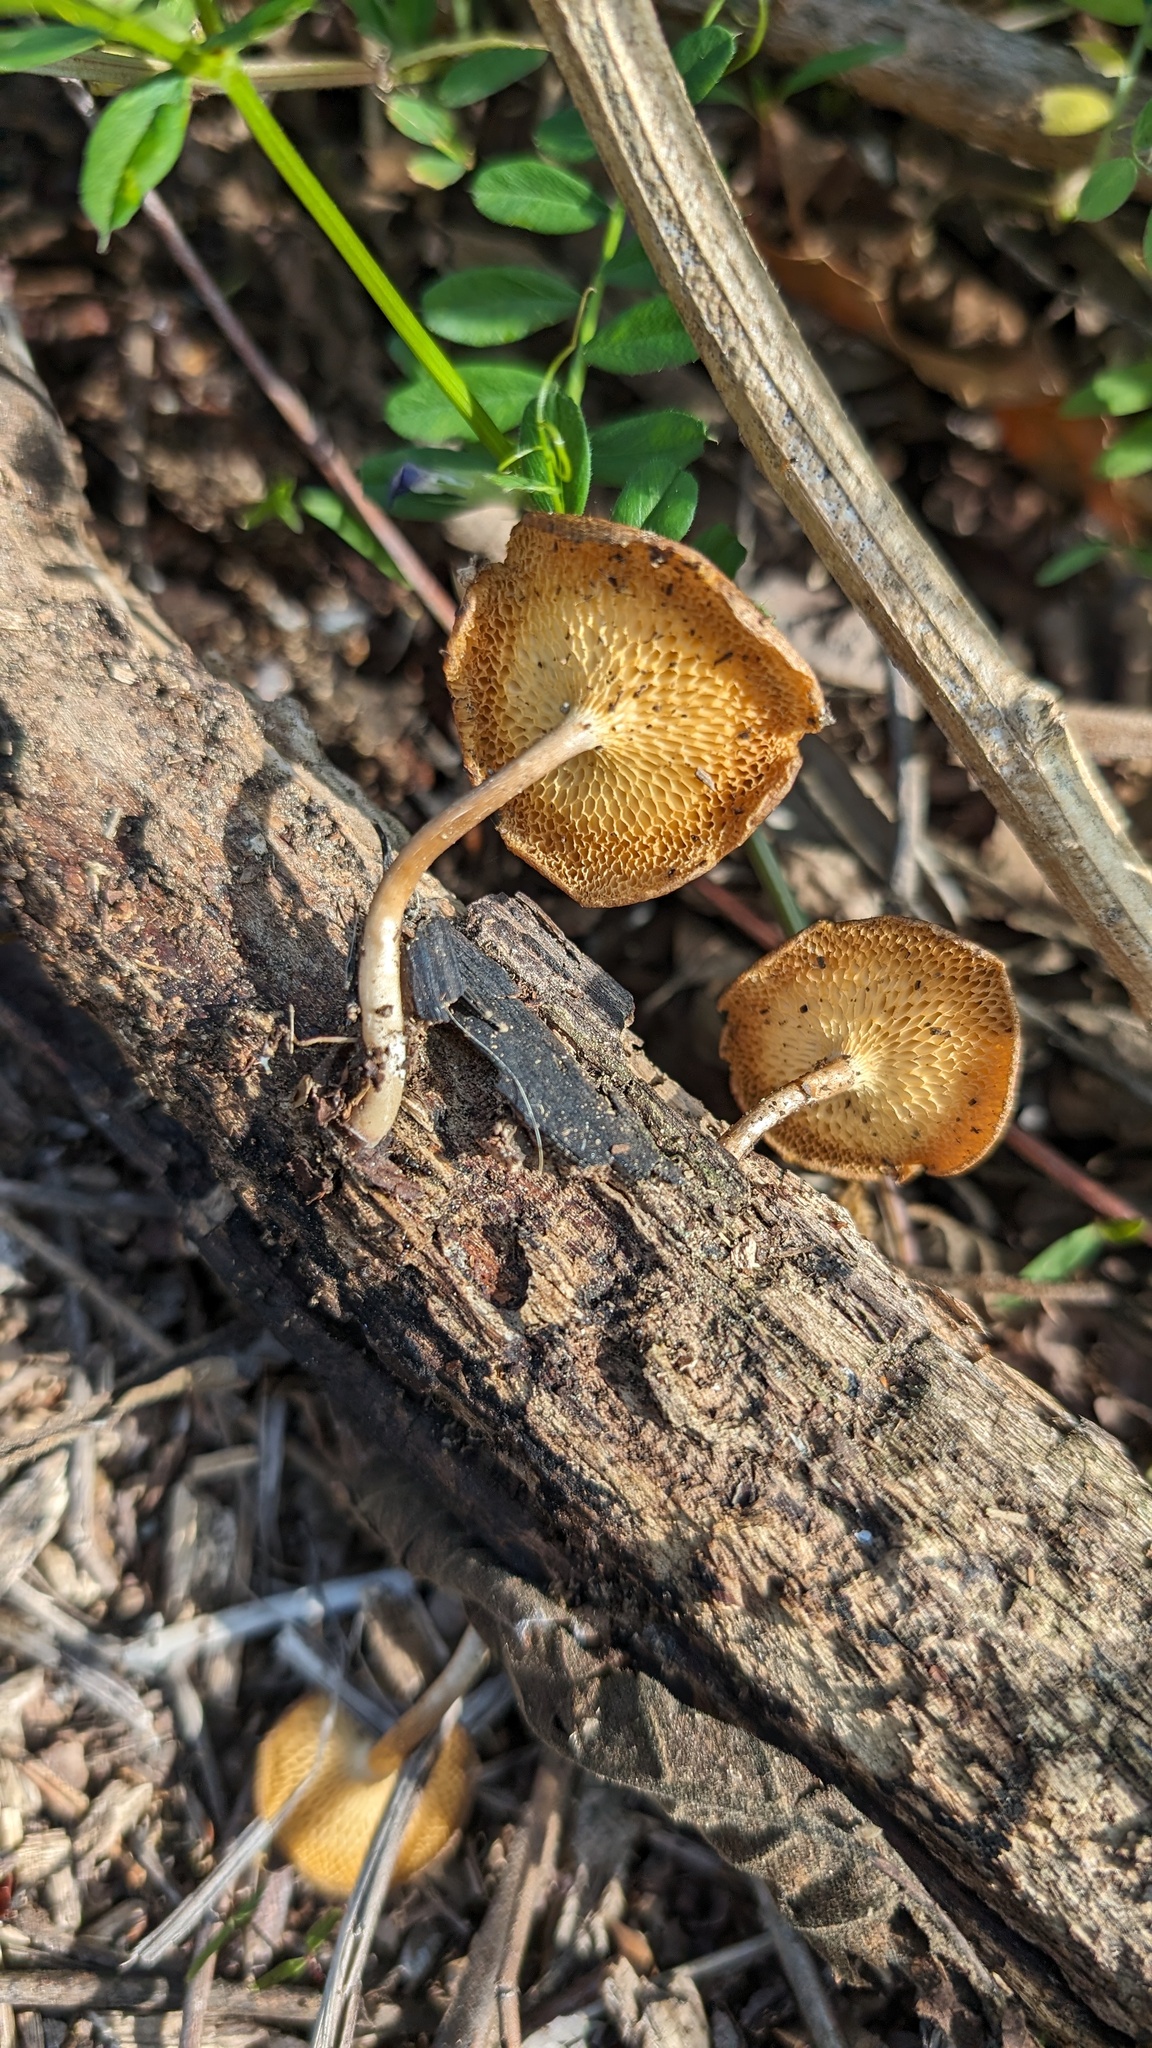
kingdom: Fungi
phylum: Basidiomycota
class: Agaricomycetes
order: Polyporales
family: Polyporaceae
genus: Lentinus
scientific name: Lentinus arcularius
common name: Spring polypore
